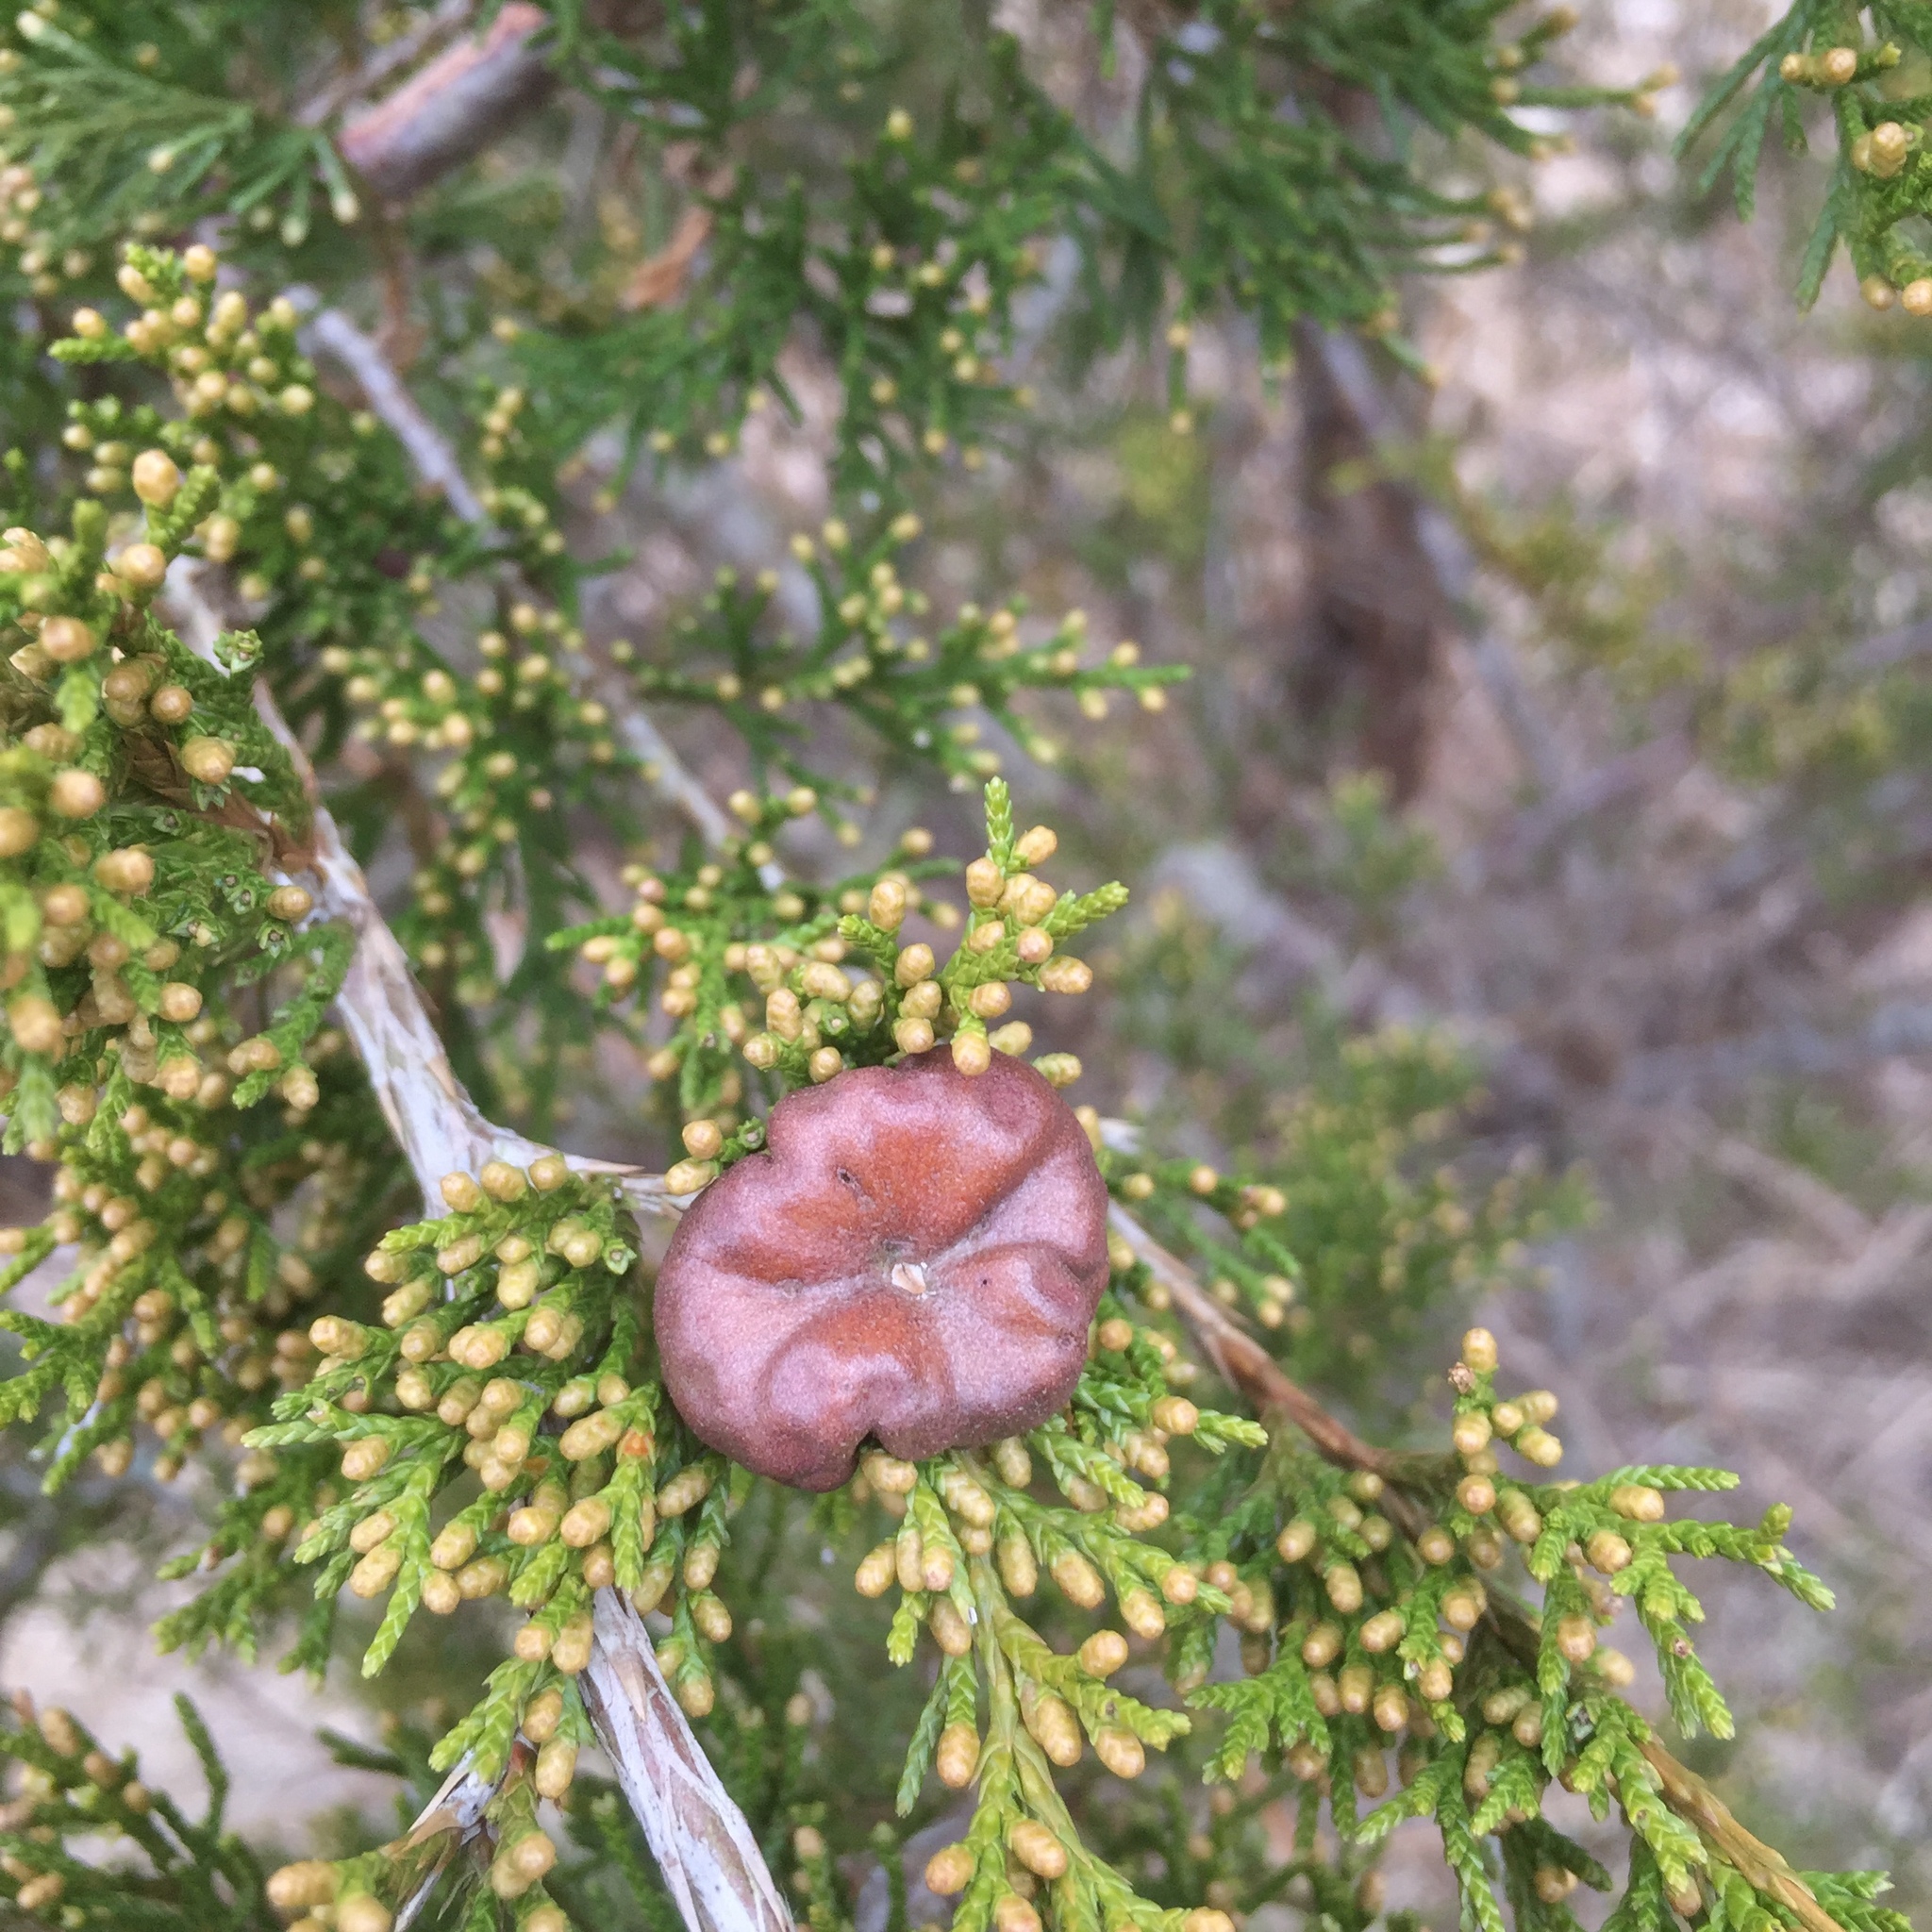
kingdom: Fungi
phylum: Basidiomycota
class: Pucciniomycetes
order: Pucciniales
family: Gymnosporangiaceae
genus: Gymnosporangium
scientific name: Gymnosporangium juniperi-virginianae
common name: Juniper-apple rust
